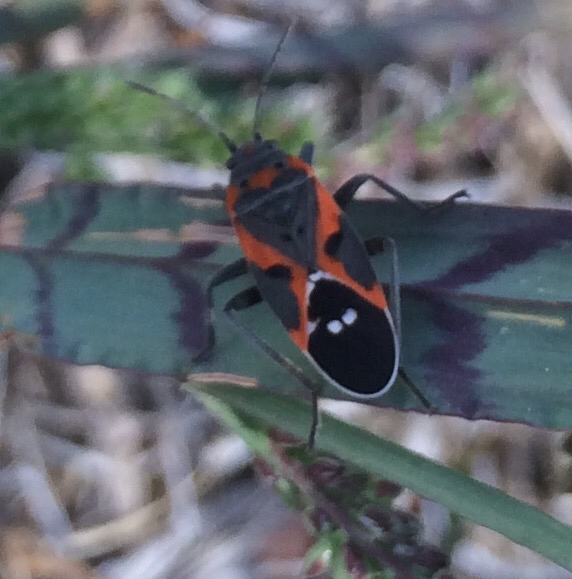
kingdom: Animalia
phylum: Arthropoda
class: Insecta
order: Hemiptera
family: Lygaeidae
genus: Lygaeus
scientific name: Lygaeus kalmii
